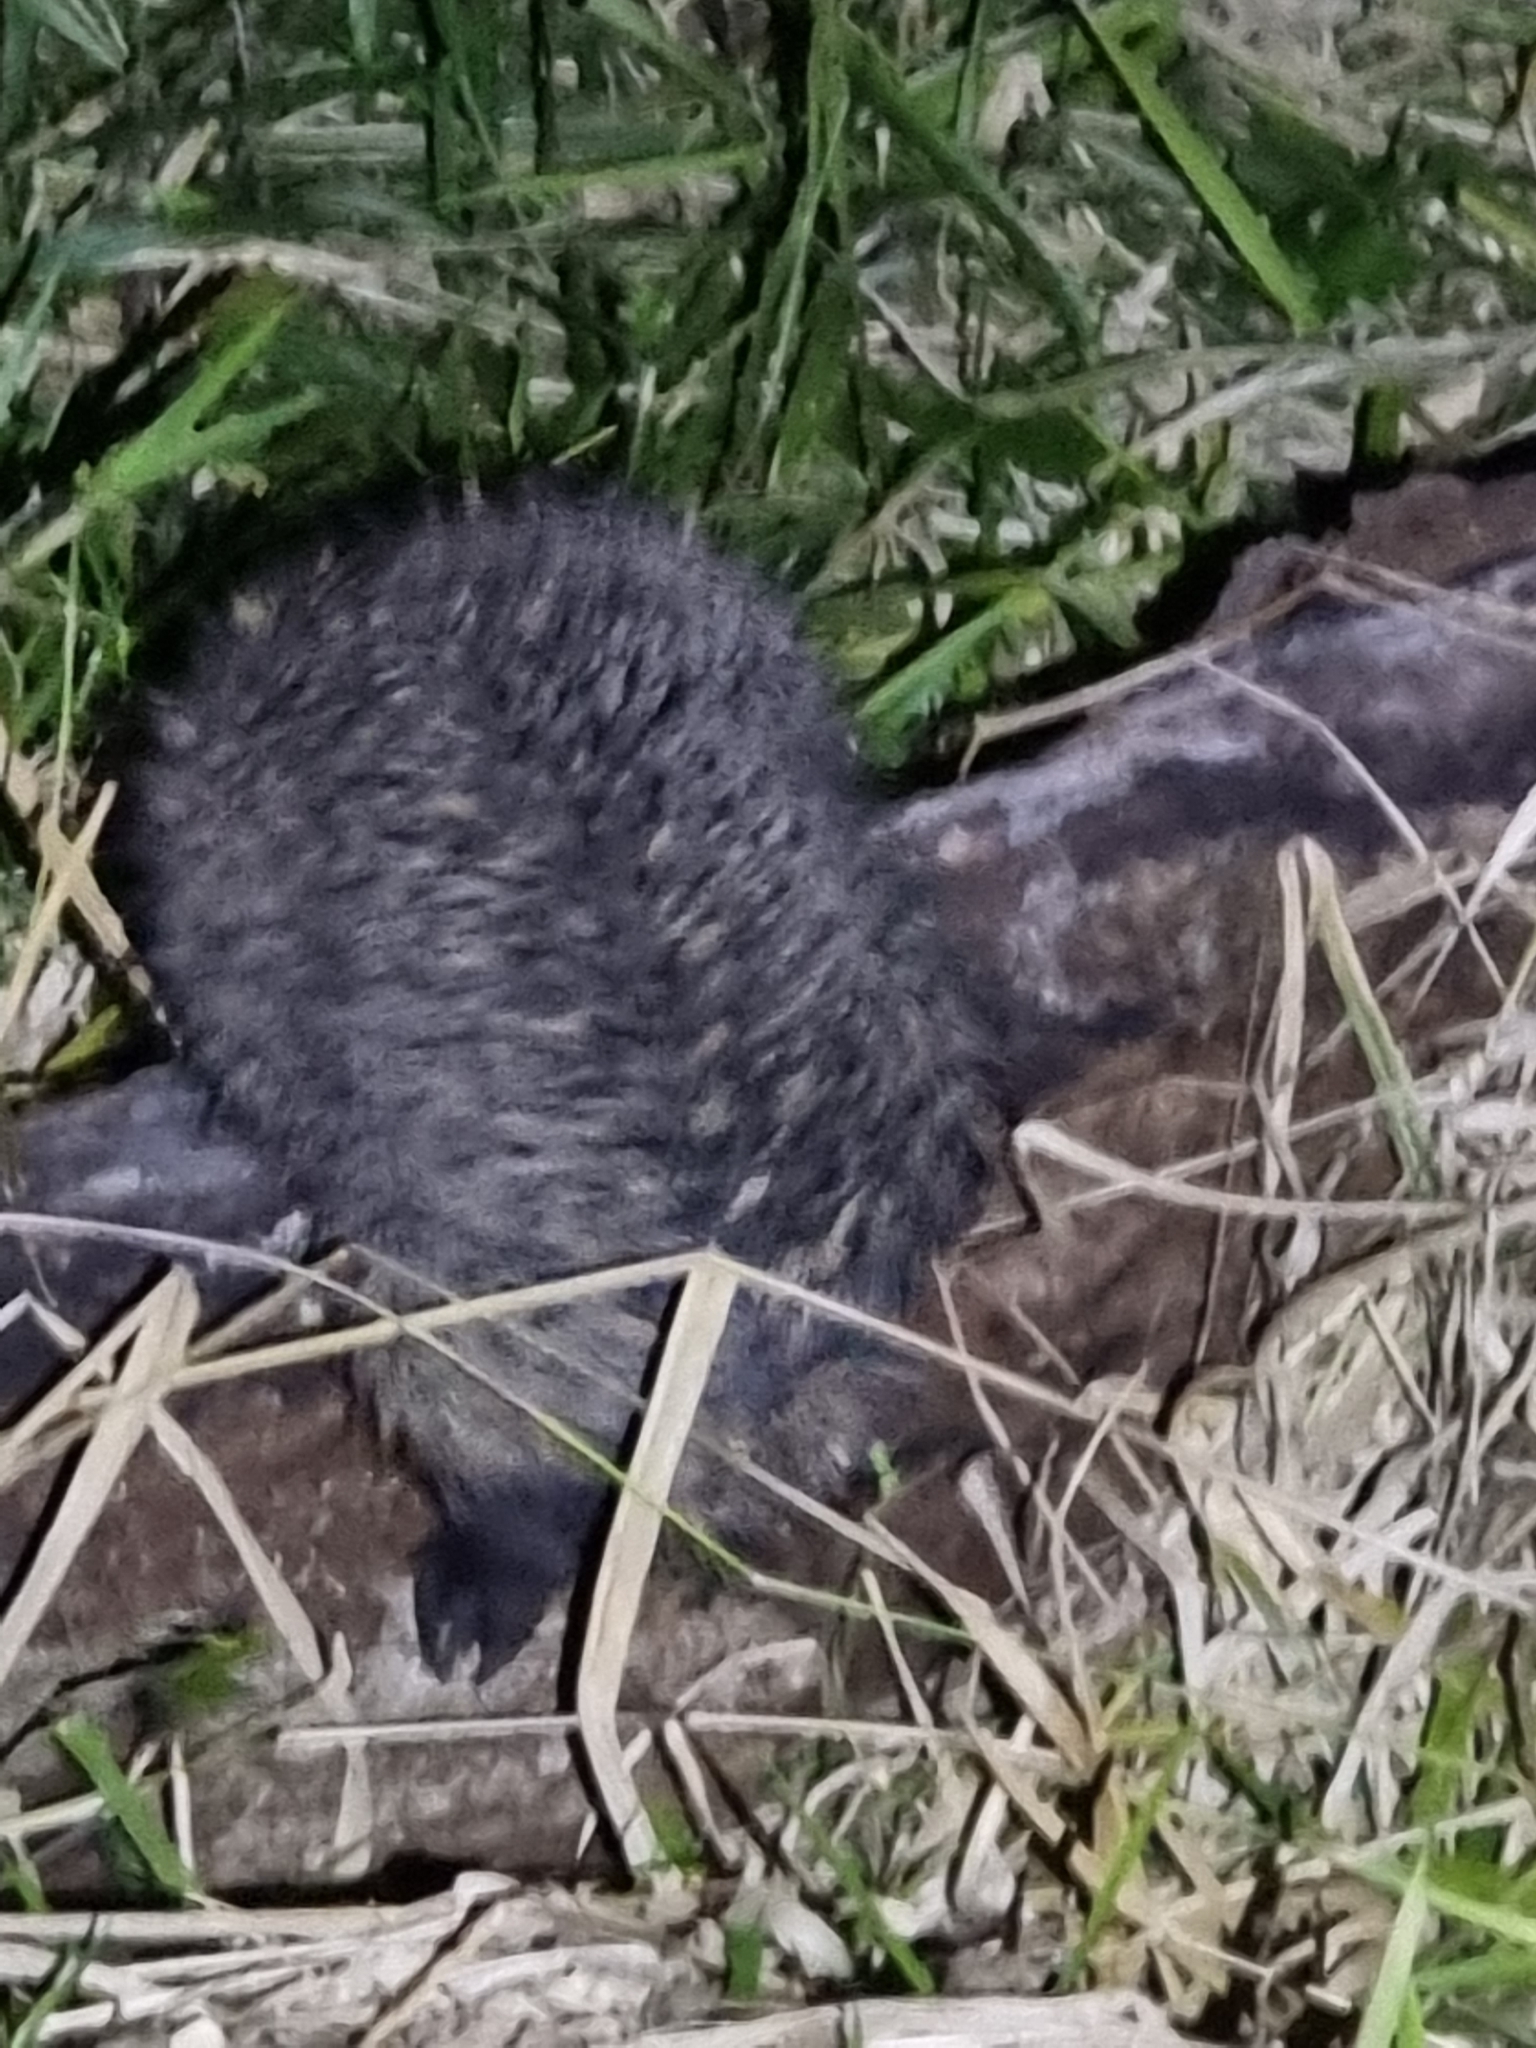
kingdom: Animalia
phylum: Chordata
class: Mammalia
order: Monotremata
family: Tachyglossidae
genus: Tachyglossus
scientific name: Tachyglossus aculeatus
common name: Short-beaked echidna
